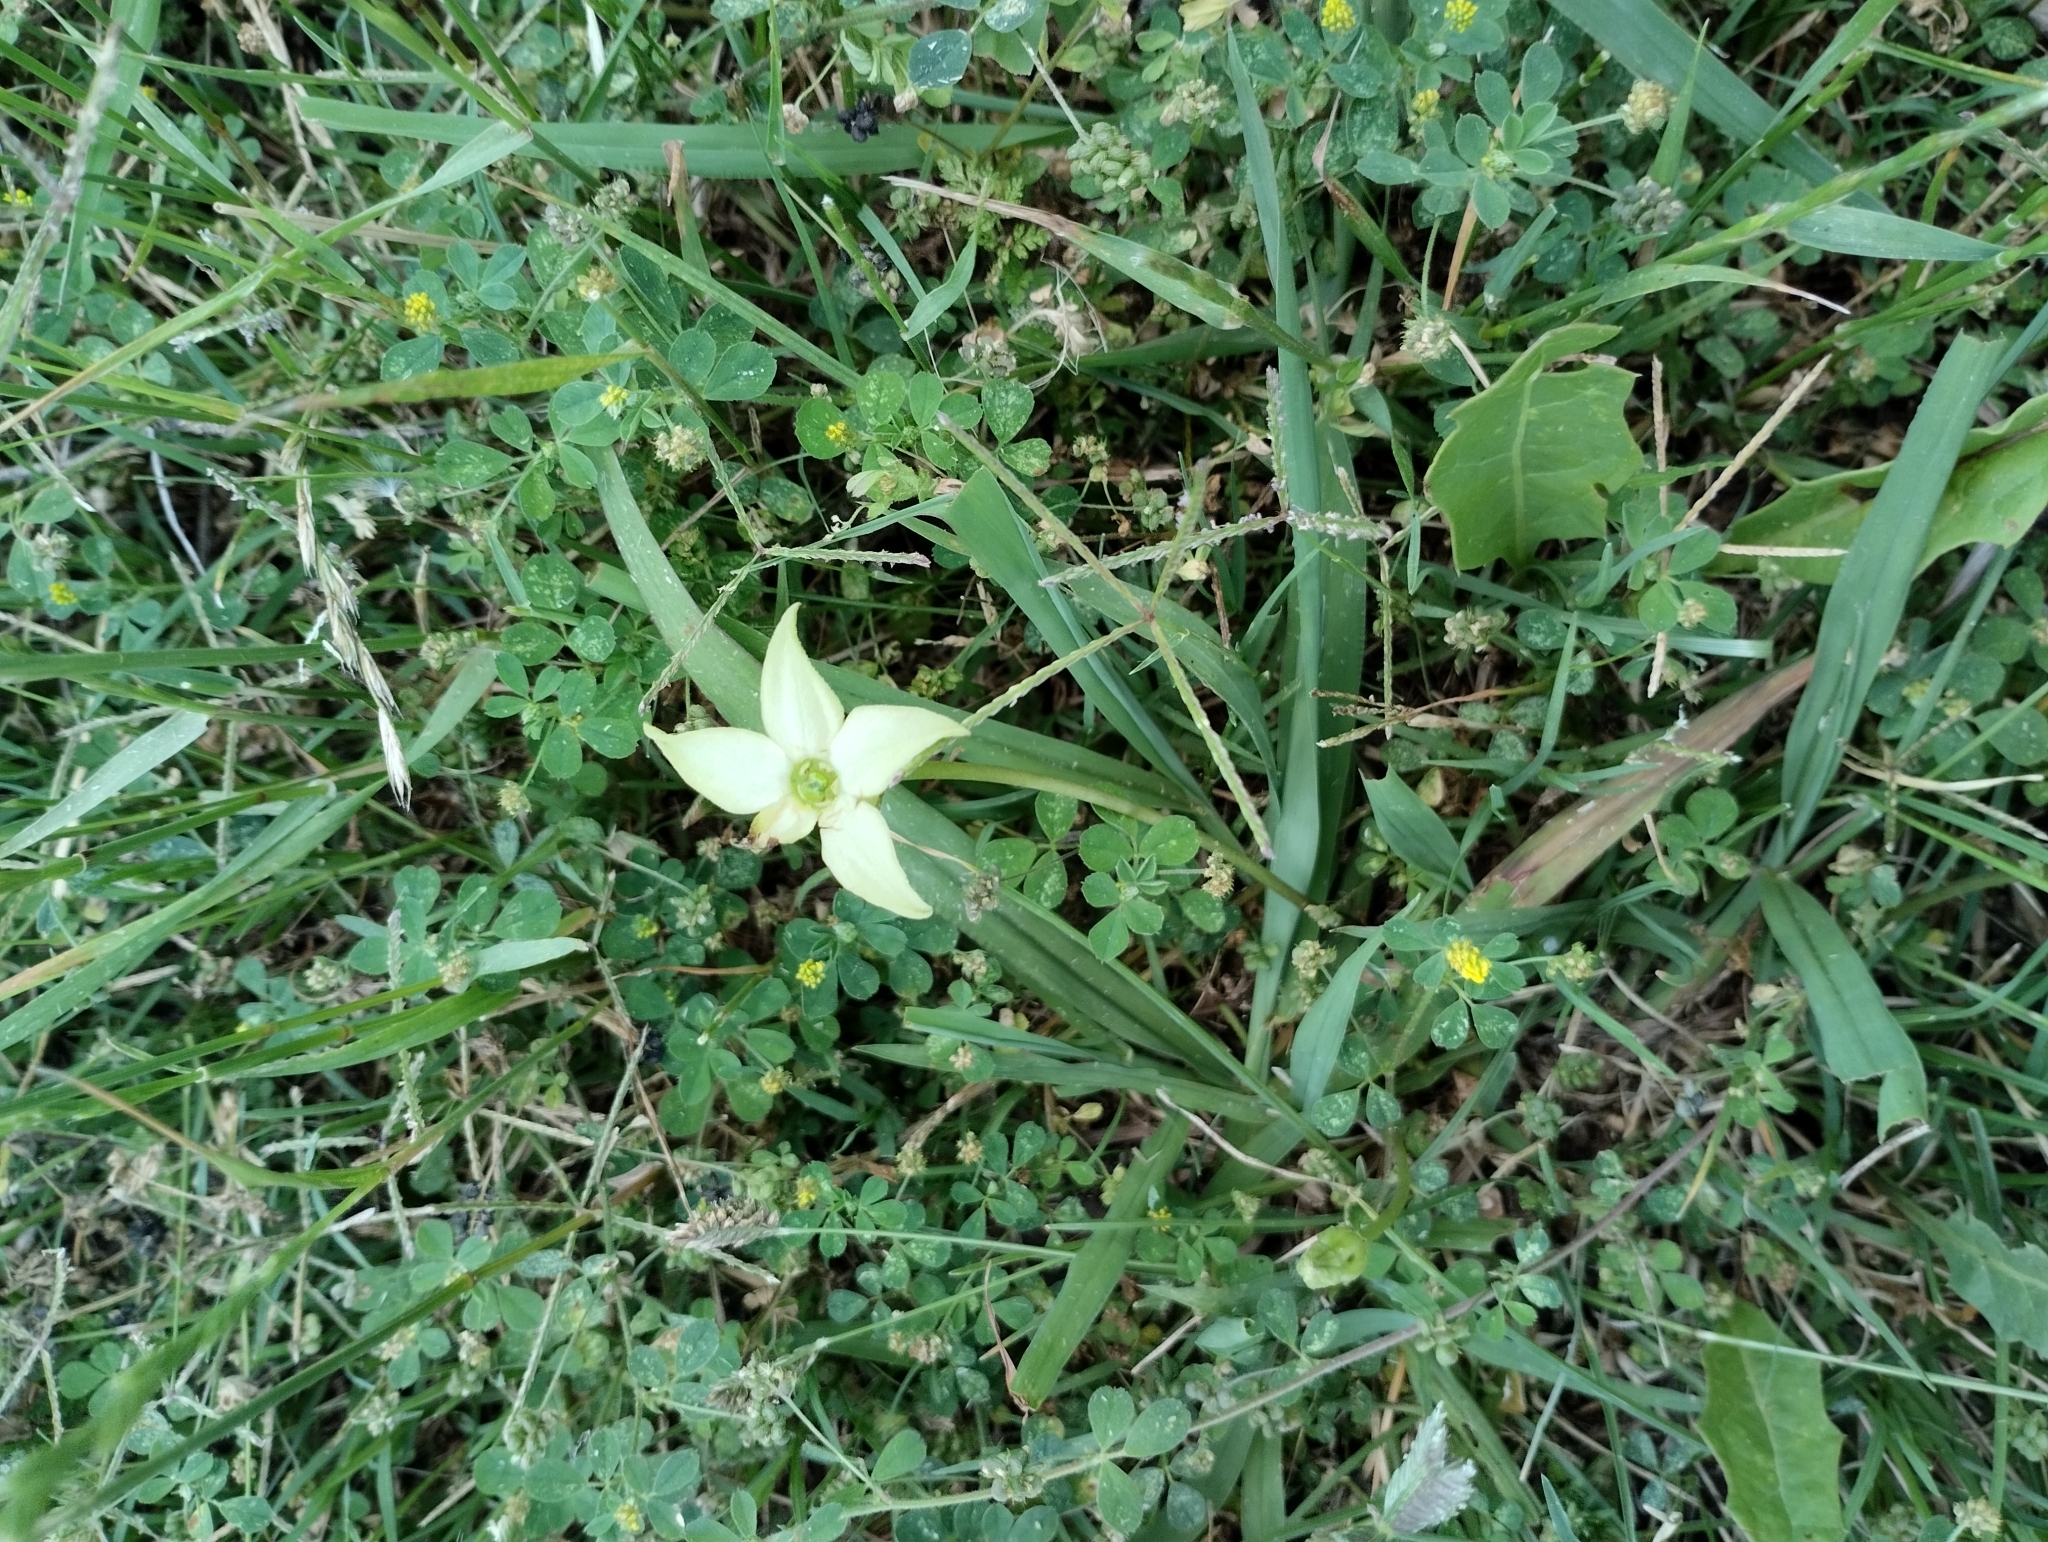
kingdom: Plantae
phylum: Tracheophyta
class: Magnoliopsida
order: Solanales
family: Solanaceae
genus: Jaborosa
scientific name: Jaborosa runcinata
